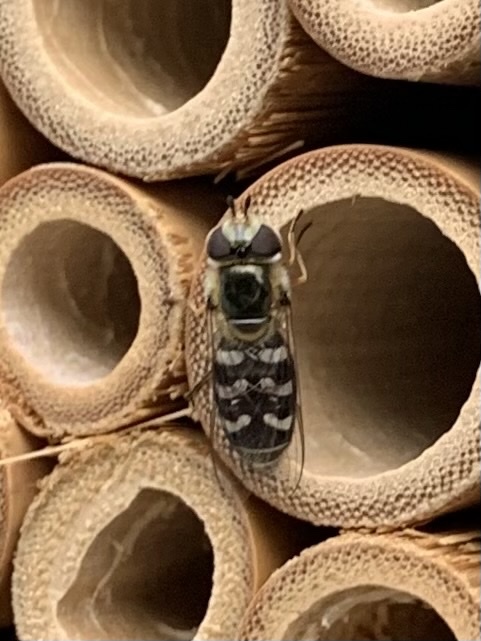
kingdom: Animalia
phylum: Arthropoda
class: Insecta
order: Diptera
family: Syrphidae
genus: Scaeva
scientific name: Scaeva pyrastri
